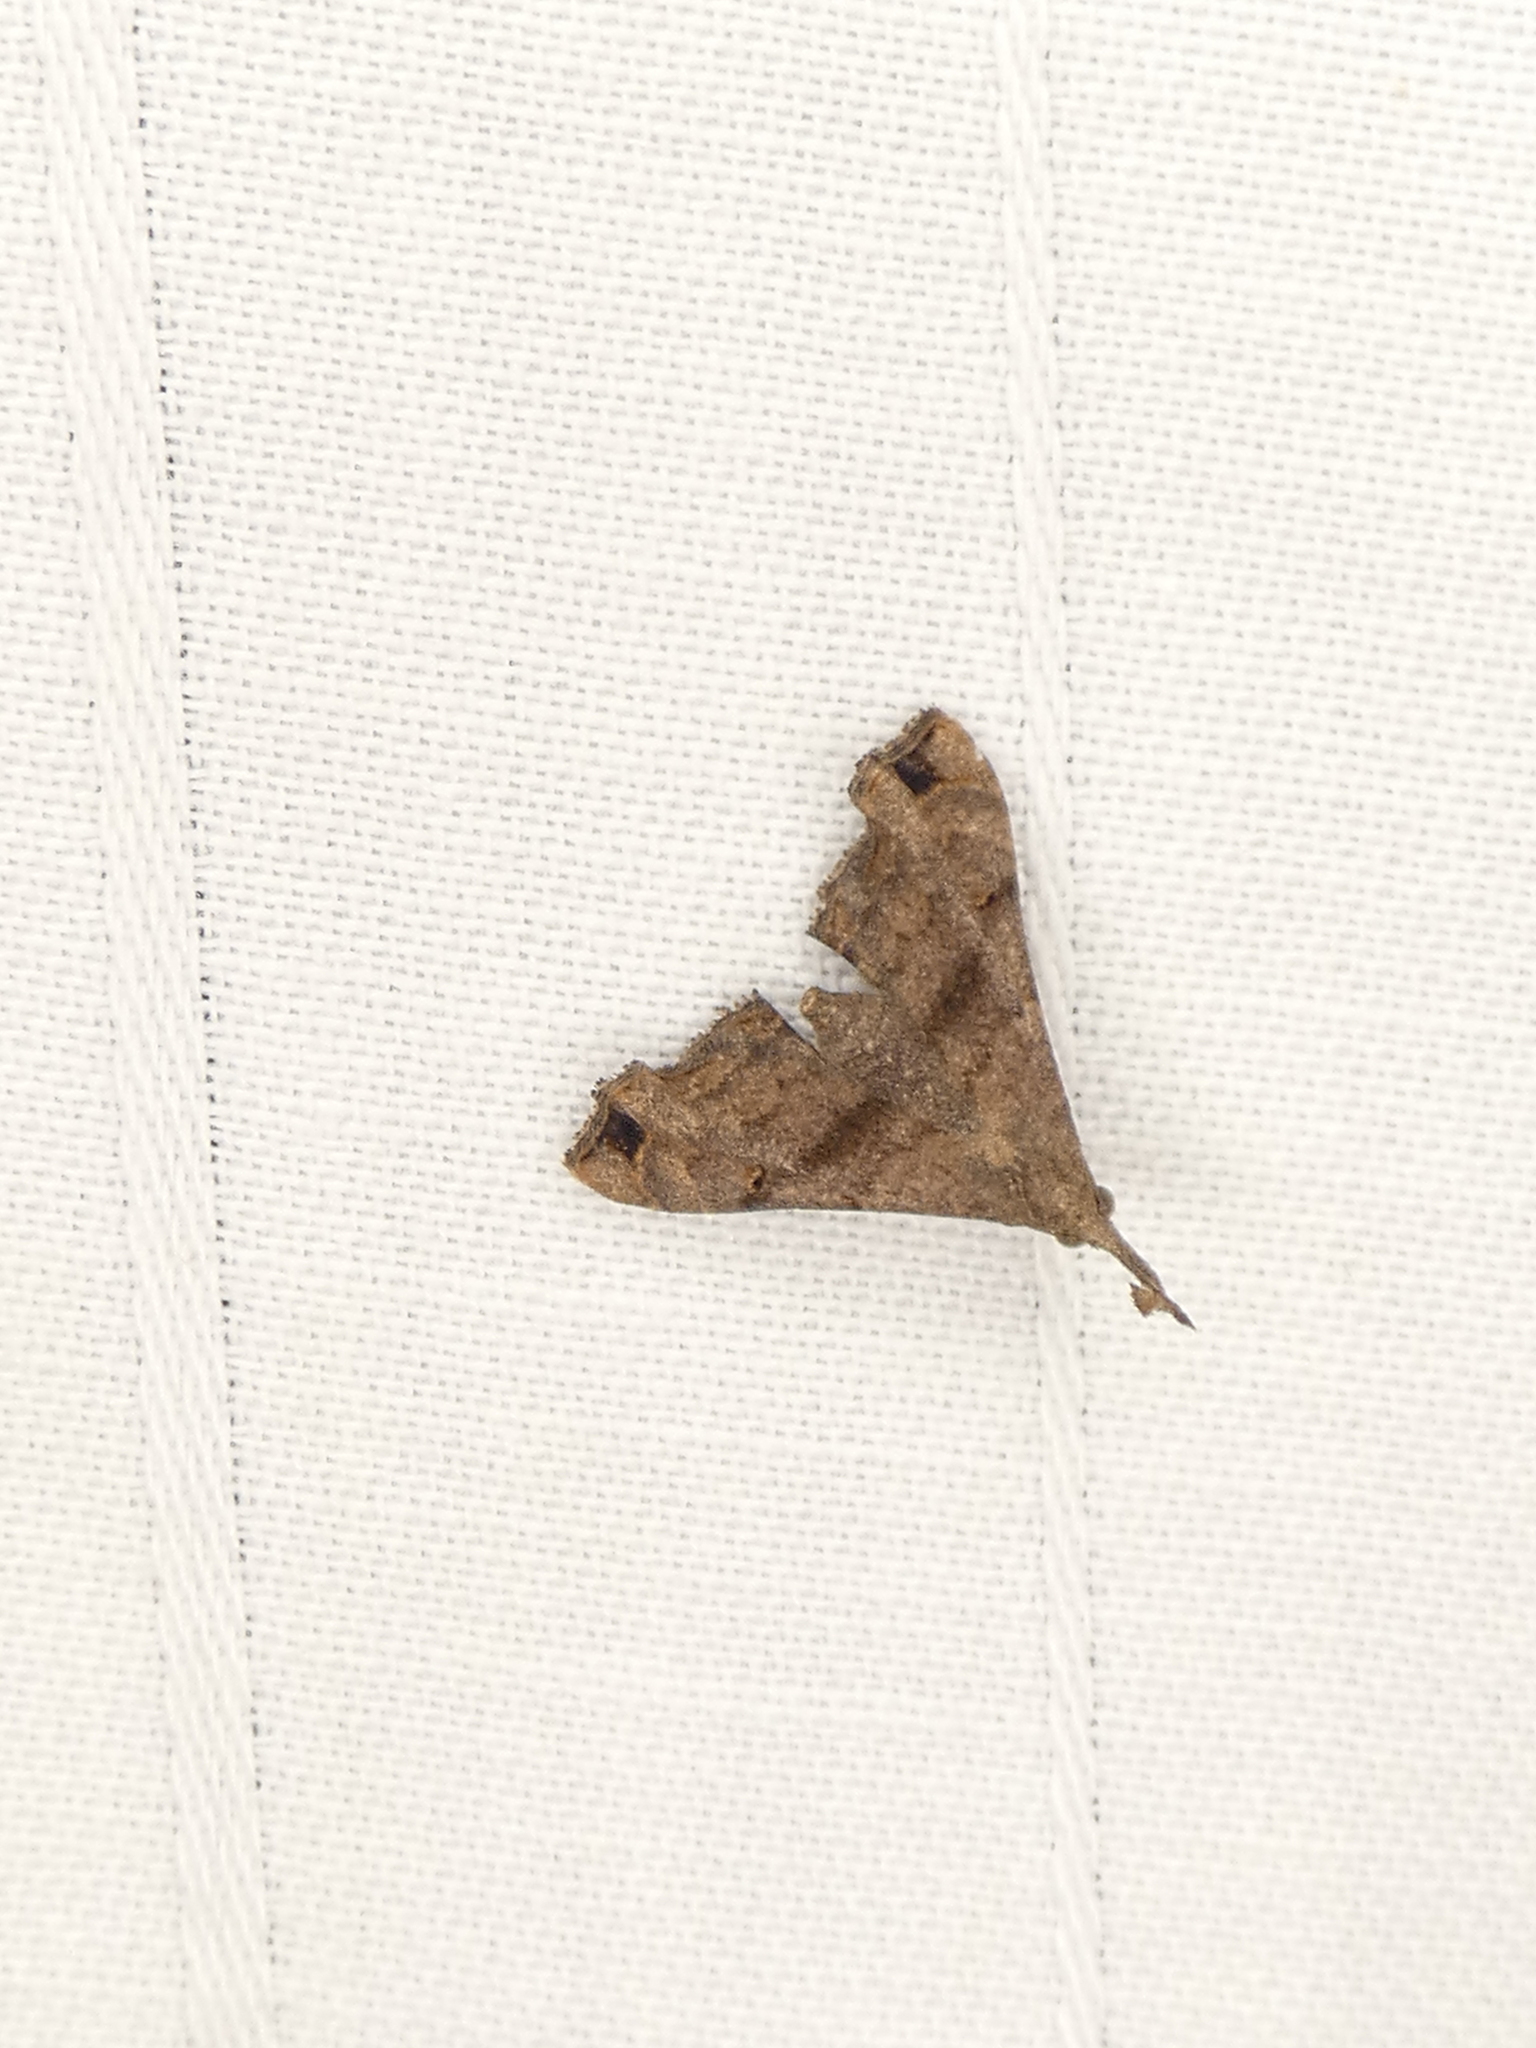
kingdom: Animalia
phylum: Arthropoda
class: Insecta
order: Lepidoptera
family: Erebidae
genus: Palthis
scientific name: Palthis asopialis
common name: Faint-spotted palthis moth
